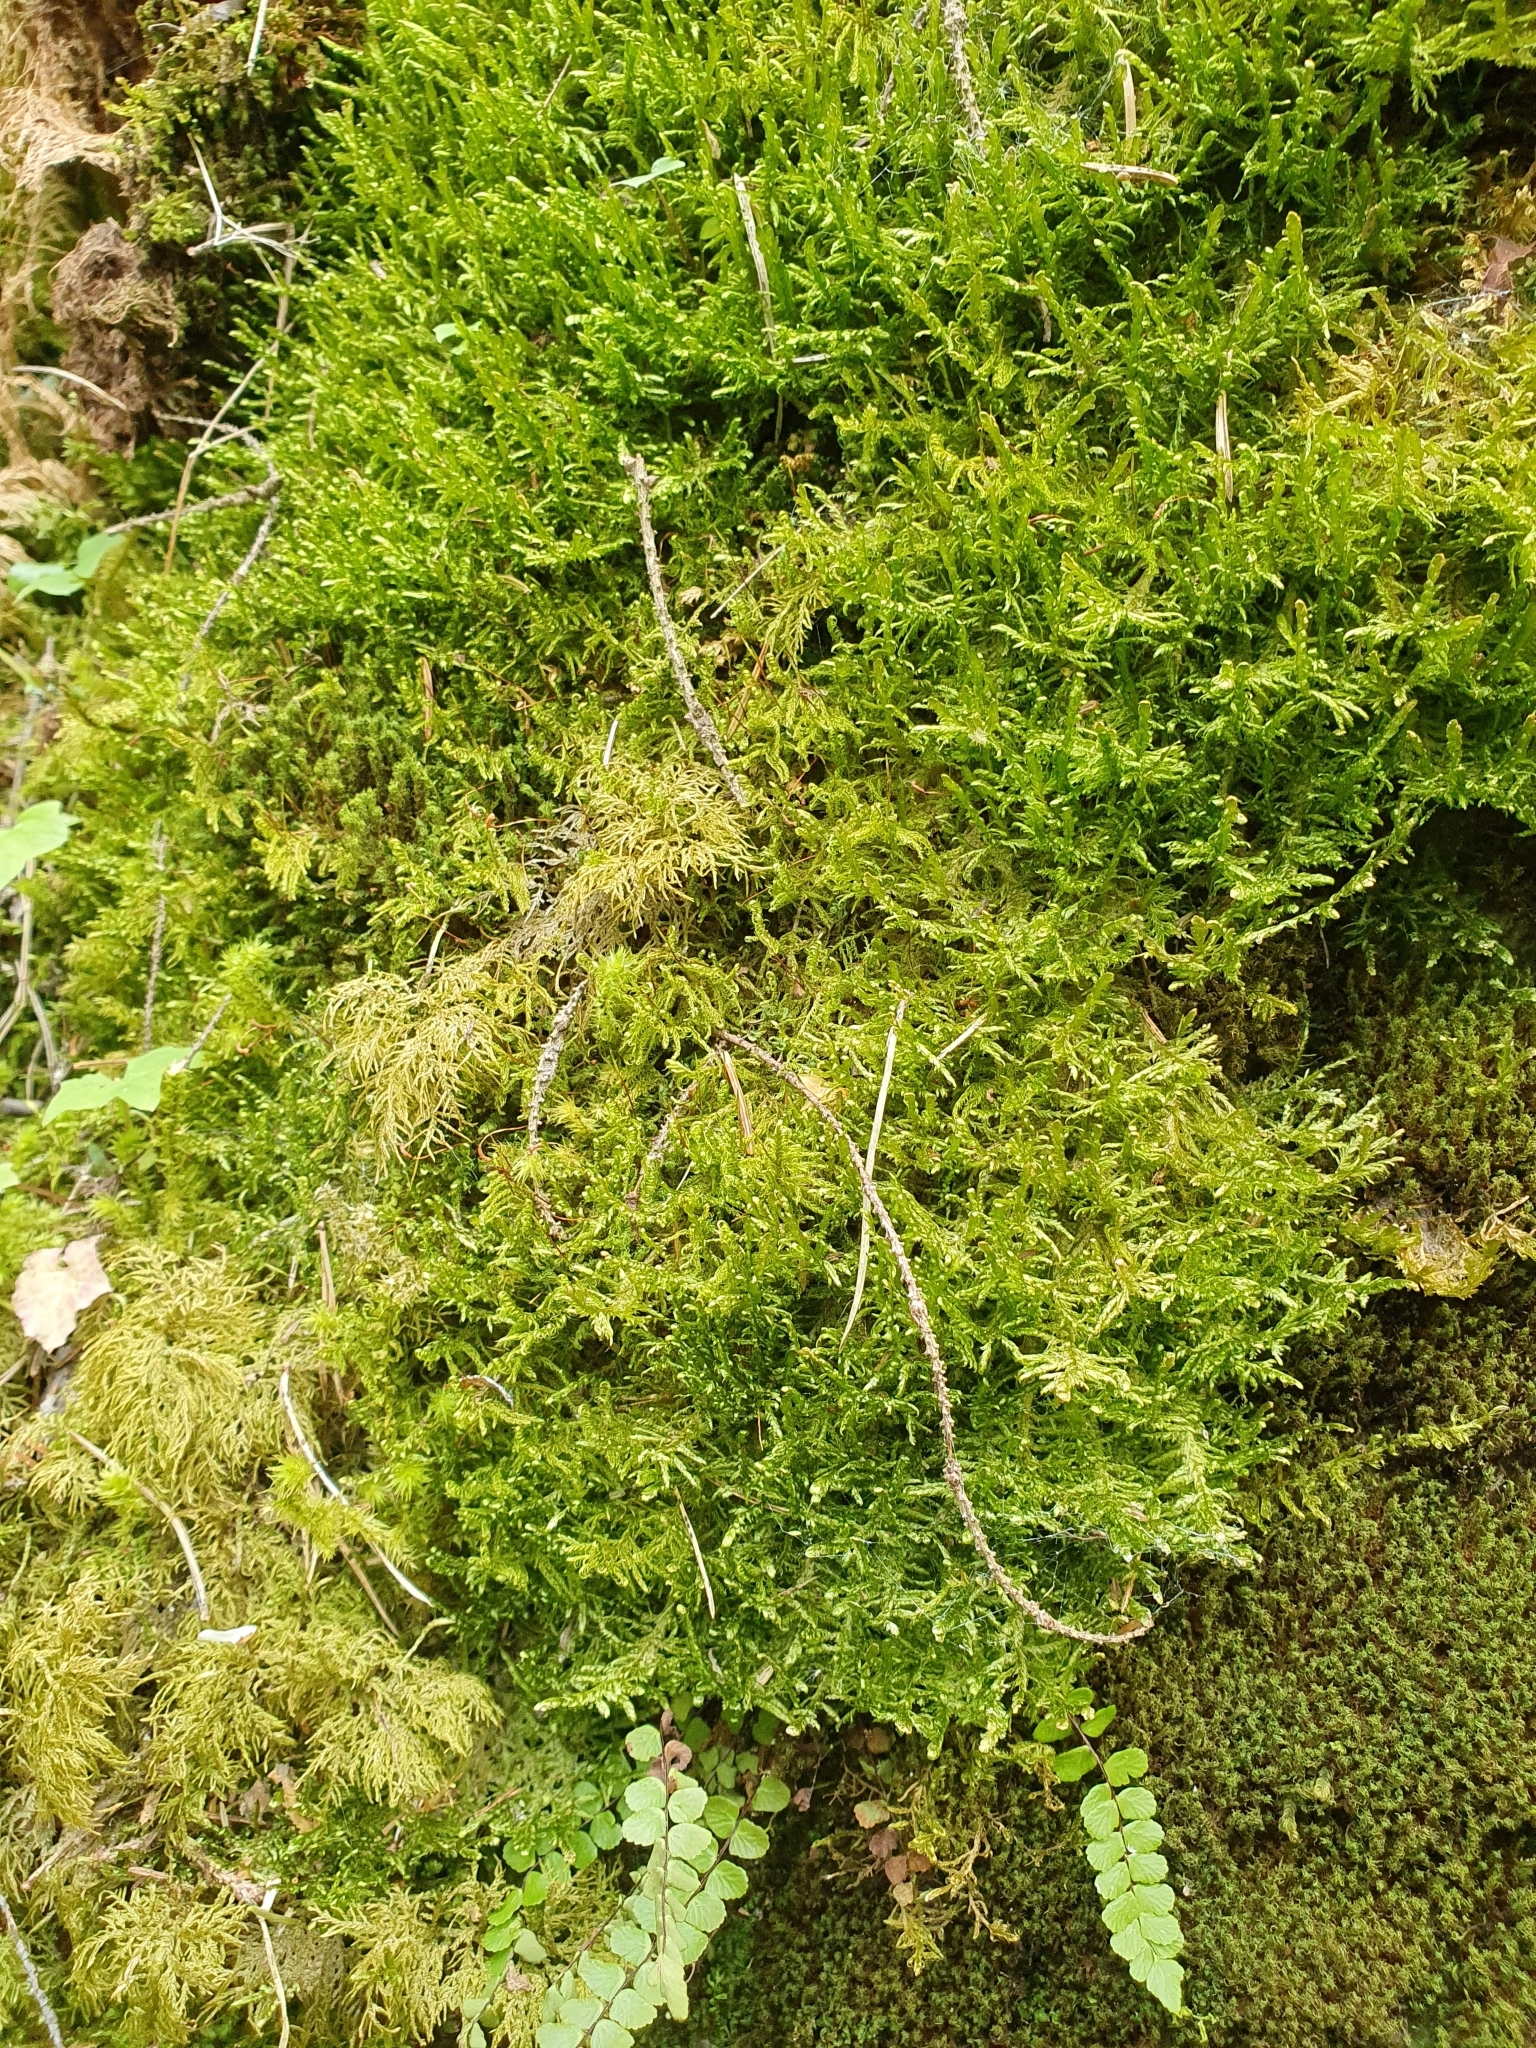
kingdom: Plantae
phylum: Bryophyta
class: Bryopsida
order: Hypnales
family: Neckeraceae
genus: Alleniella
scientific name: Alleniella complanata
